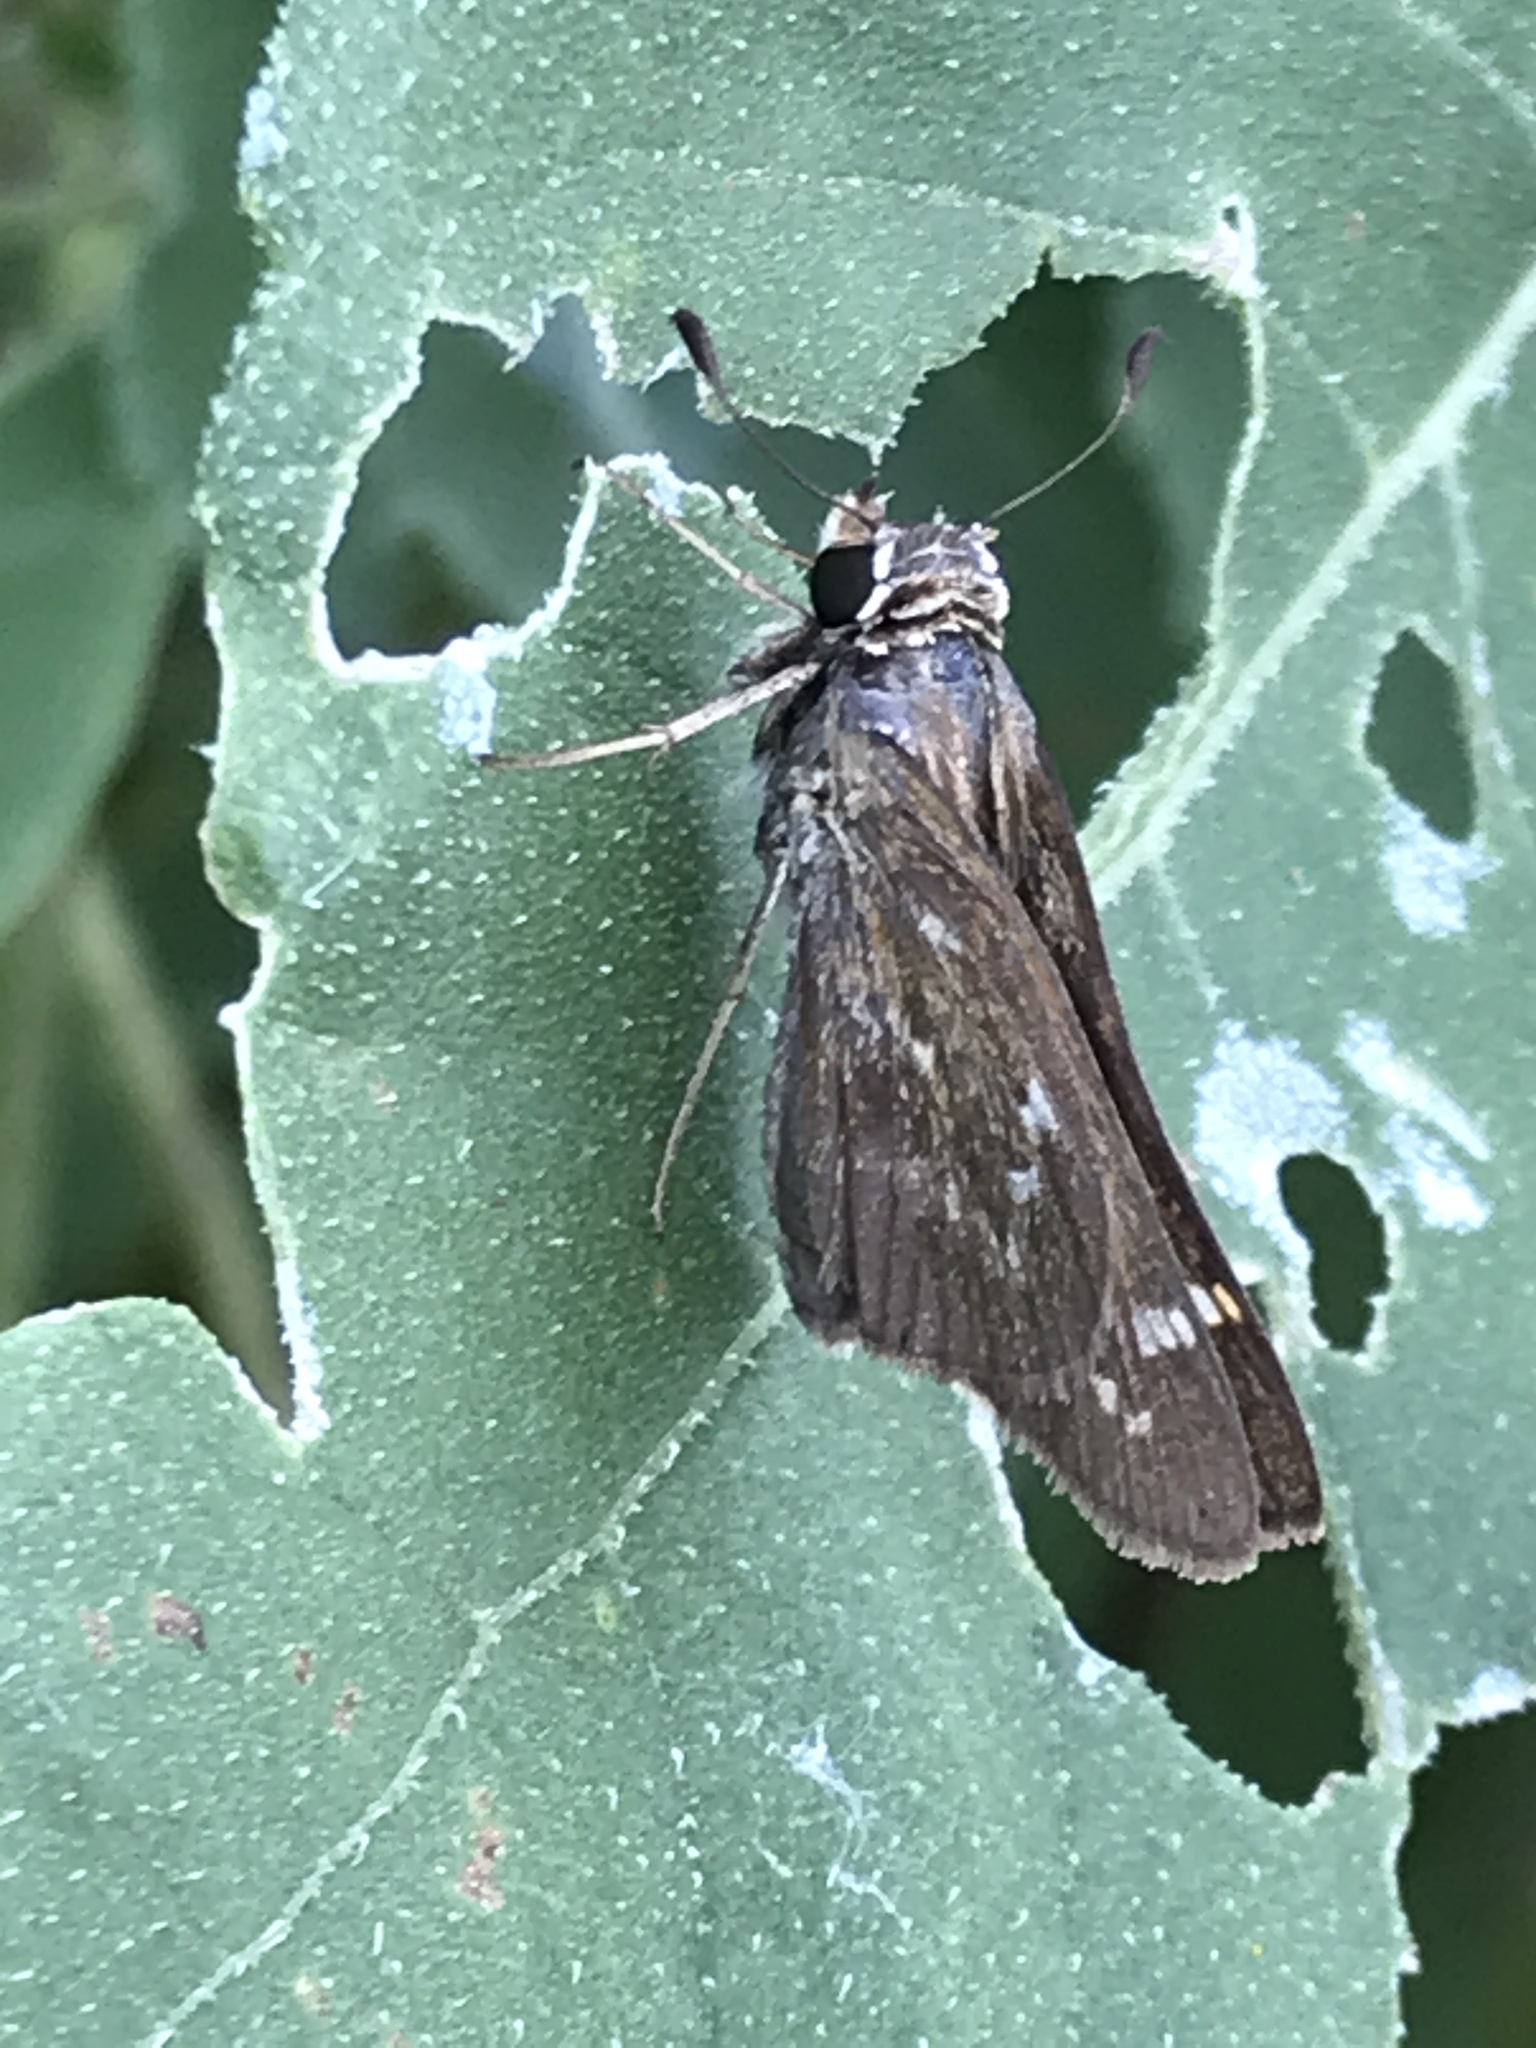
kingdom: Animalia
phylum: Arthropoda
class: Insecta
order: Lepidoptera
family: Hesperiidae
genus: Atalopedes
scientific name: Atalopedes
